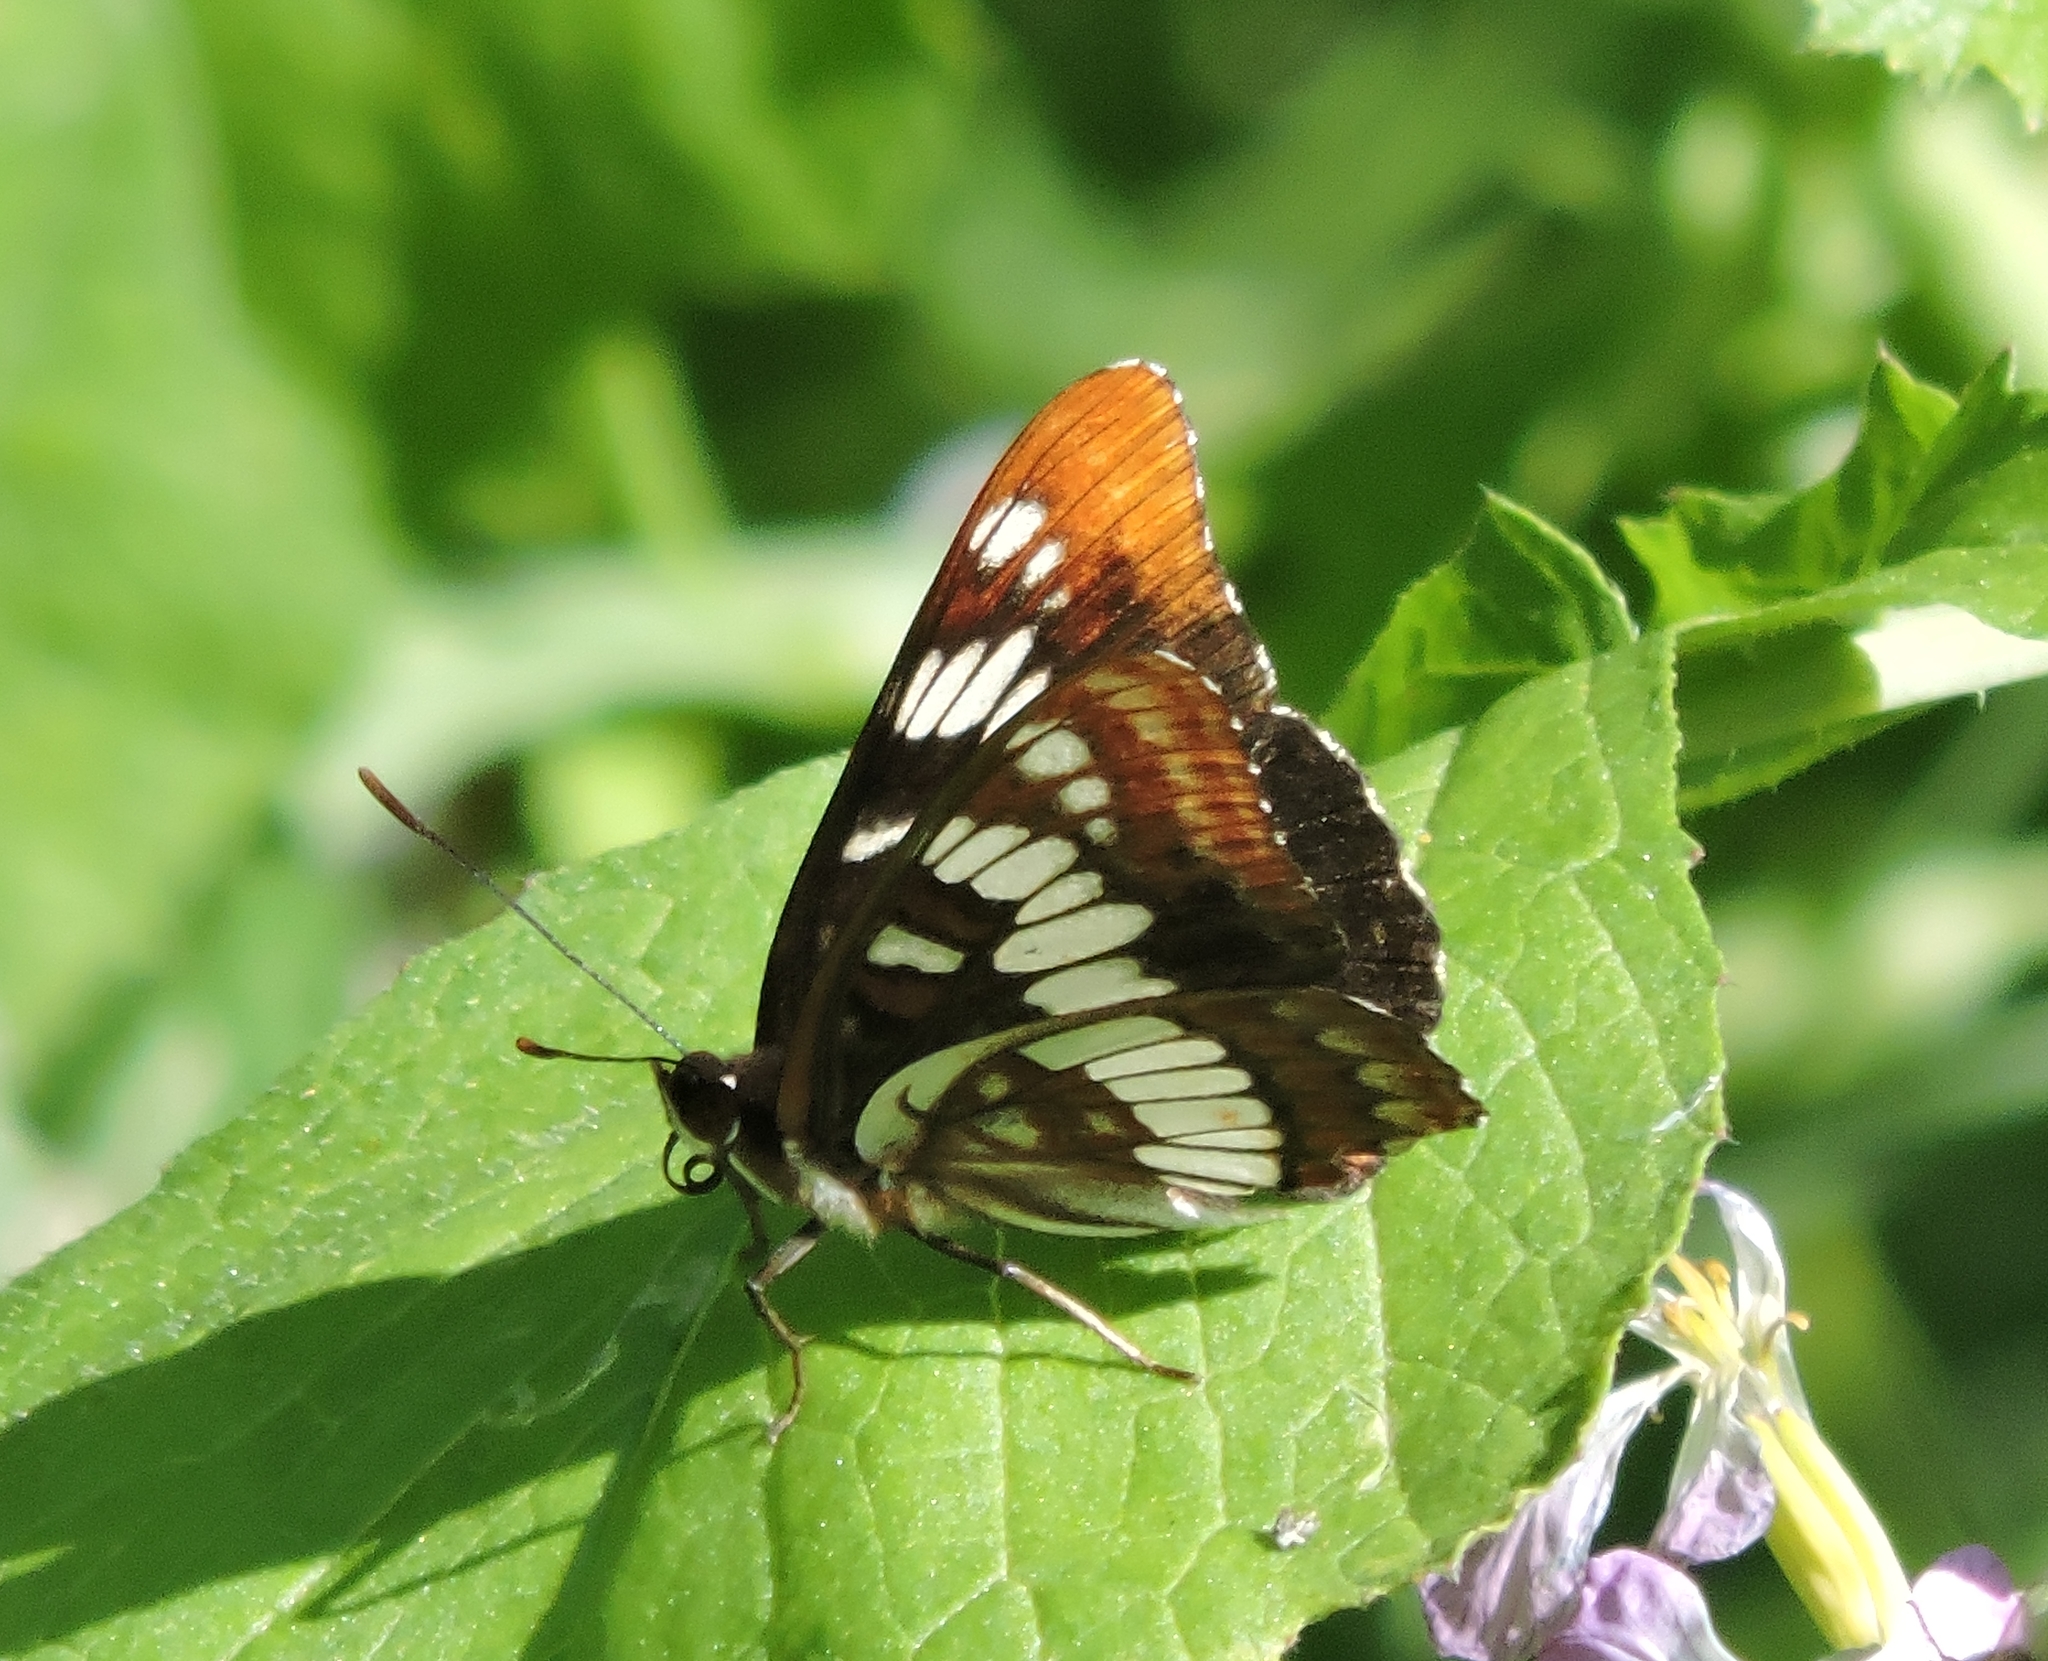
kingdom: Animalia
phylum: Arthropoda
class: Insecta
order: Lepidoptera
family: Nymphalidae
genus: Limenitis
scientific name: Limenitis lorquini
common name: Lorquin's admiral
